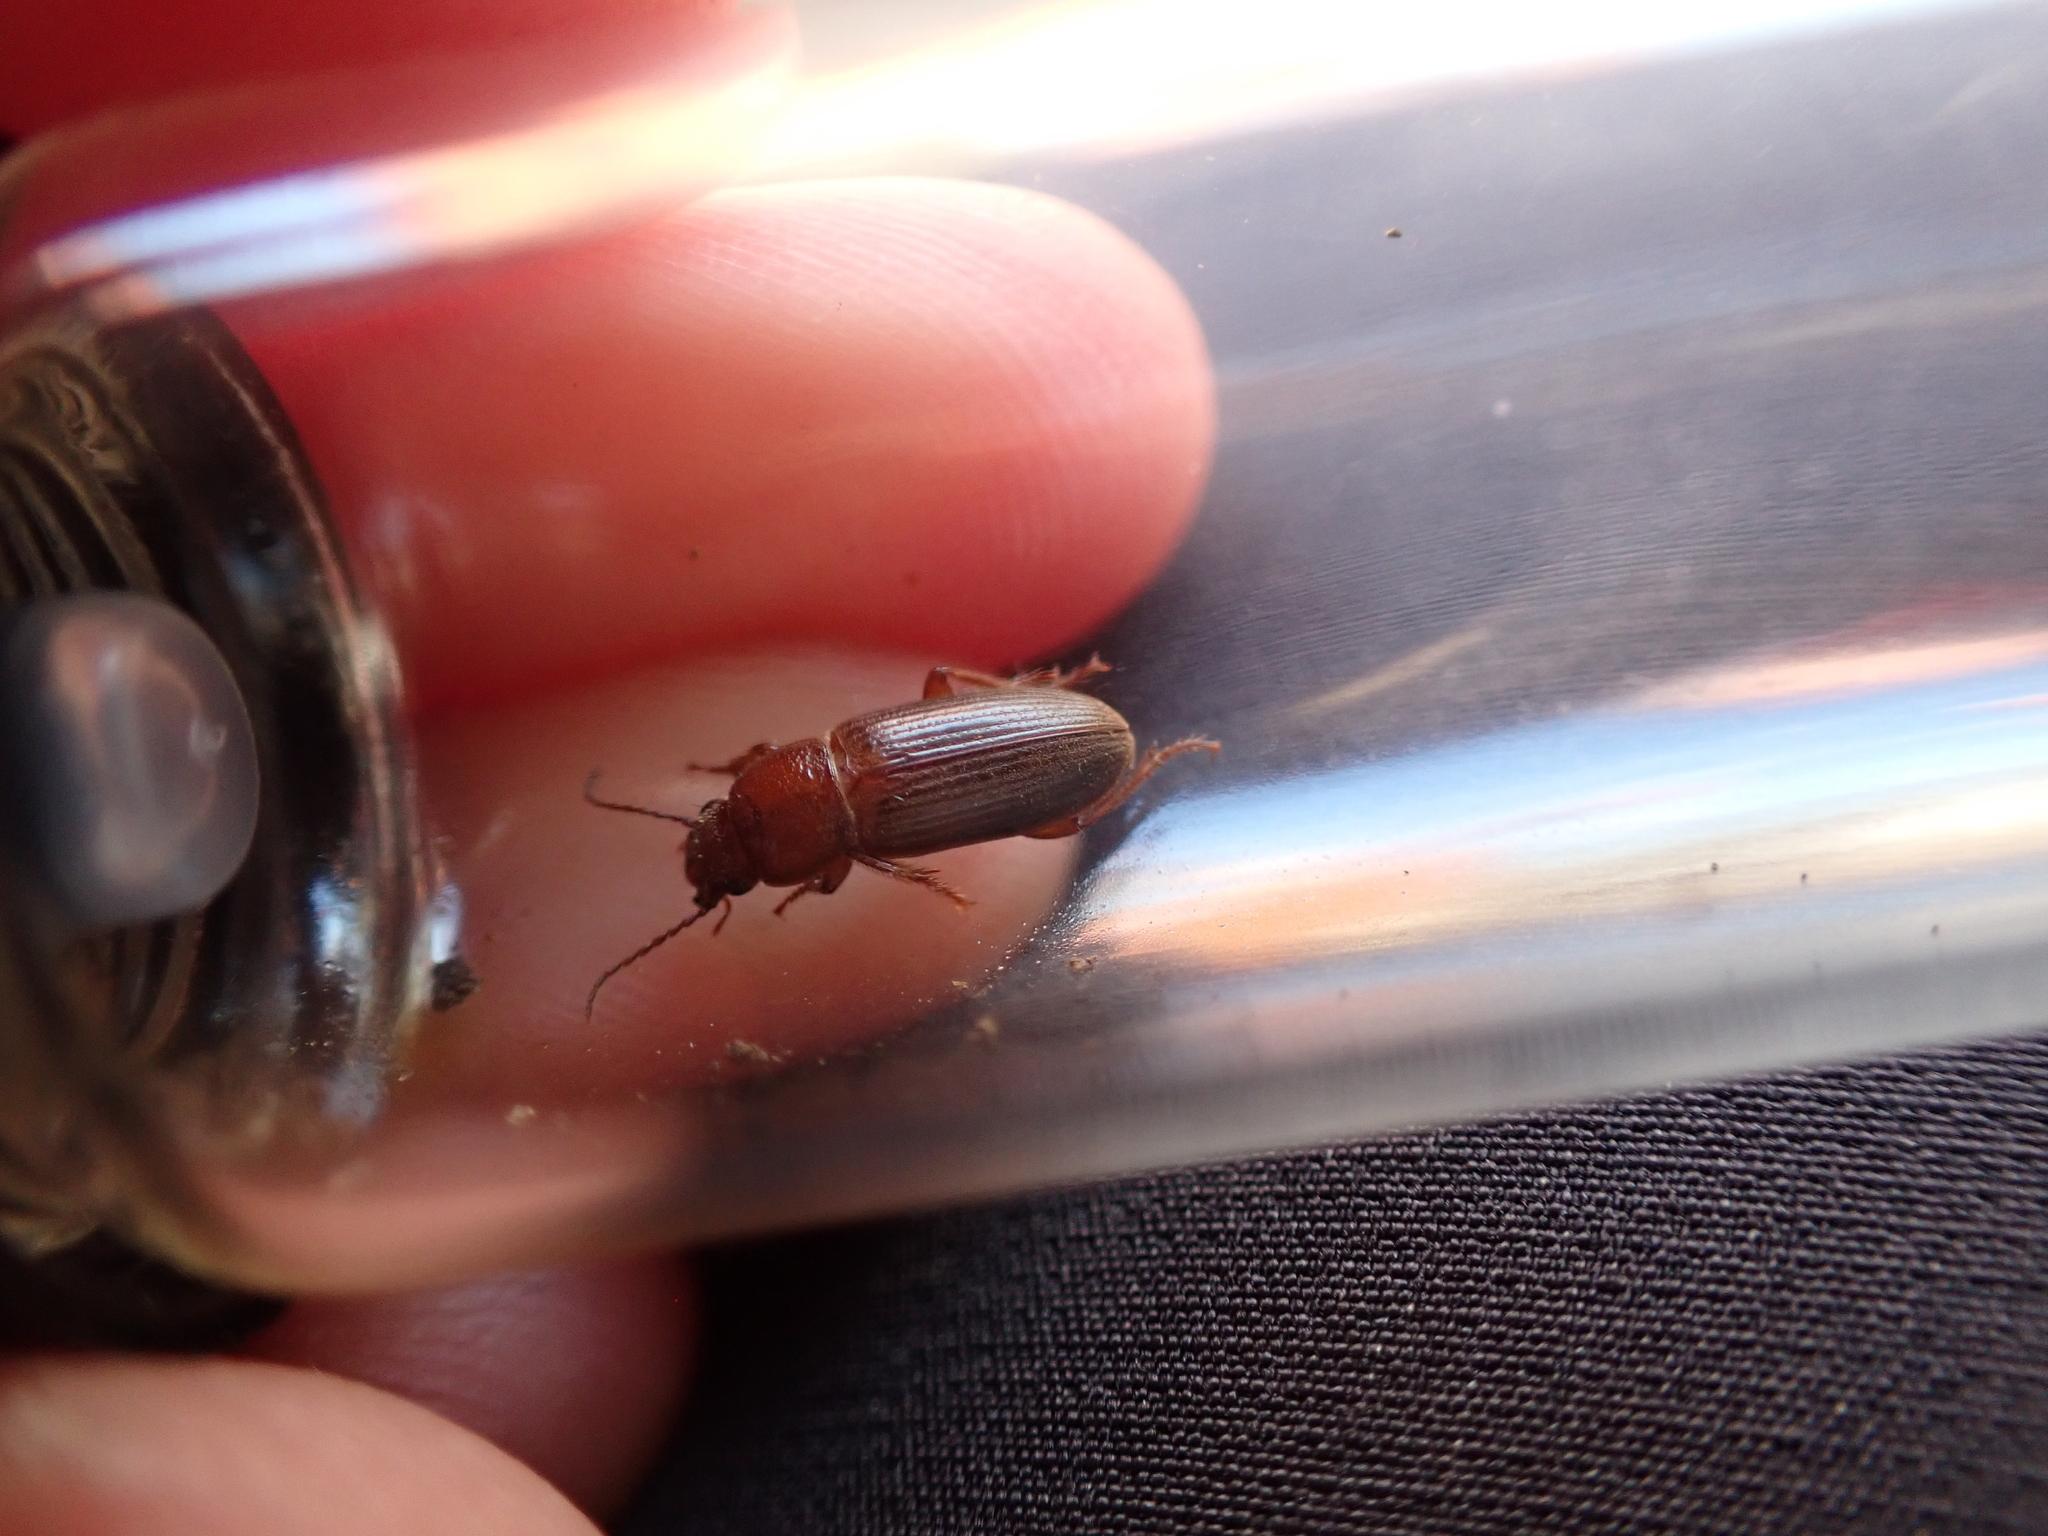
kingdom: Animalia
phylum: Arthropoda
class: Insecta
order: Coleoptera
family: Carabidae
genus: Dicheirus
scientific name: Dicheirus piceus
